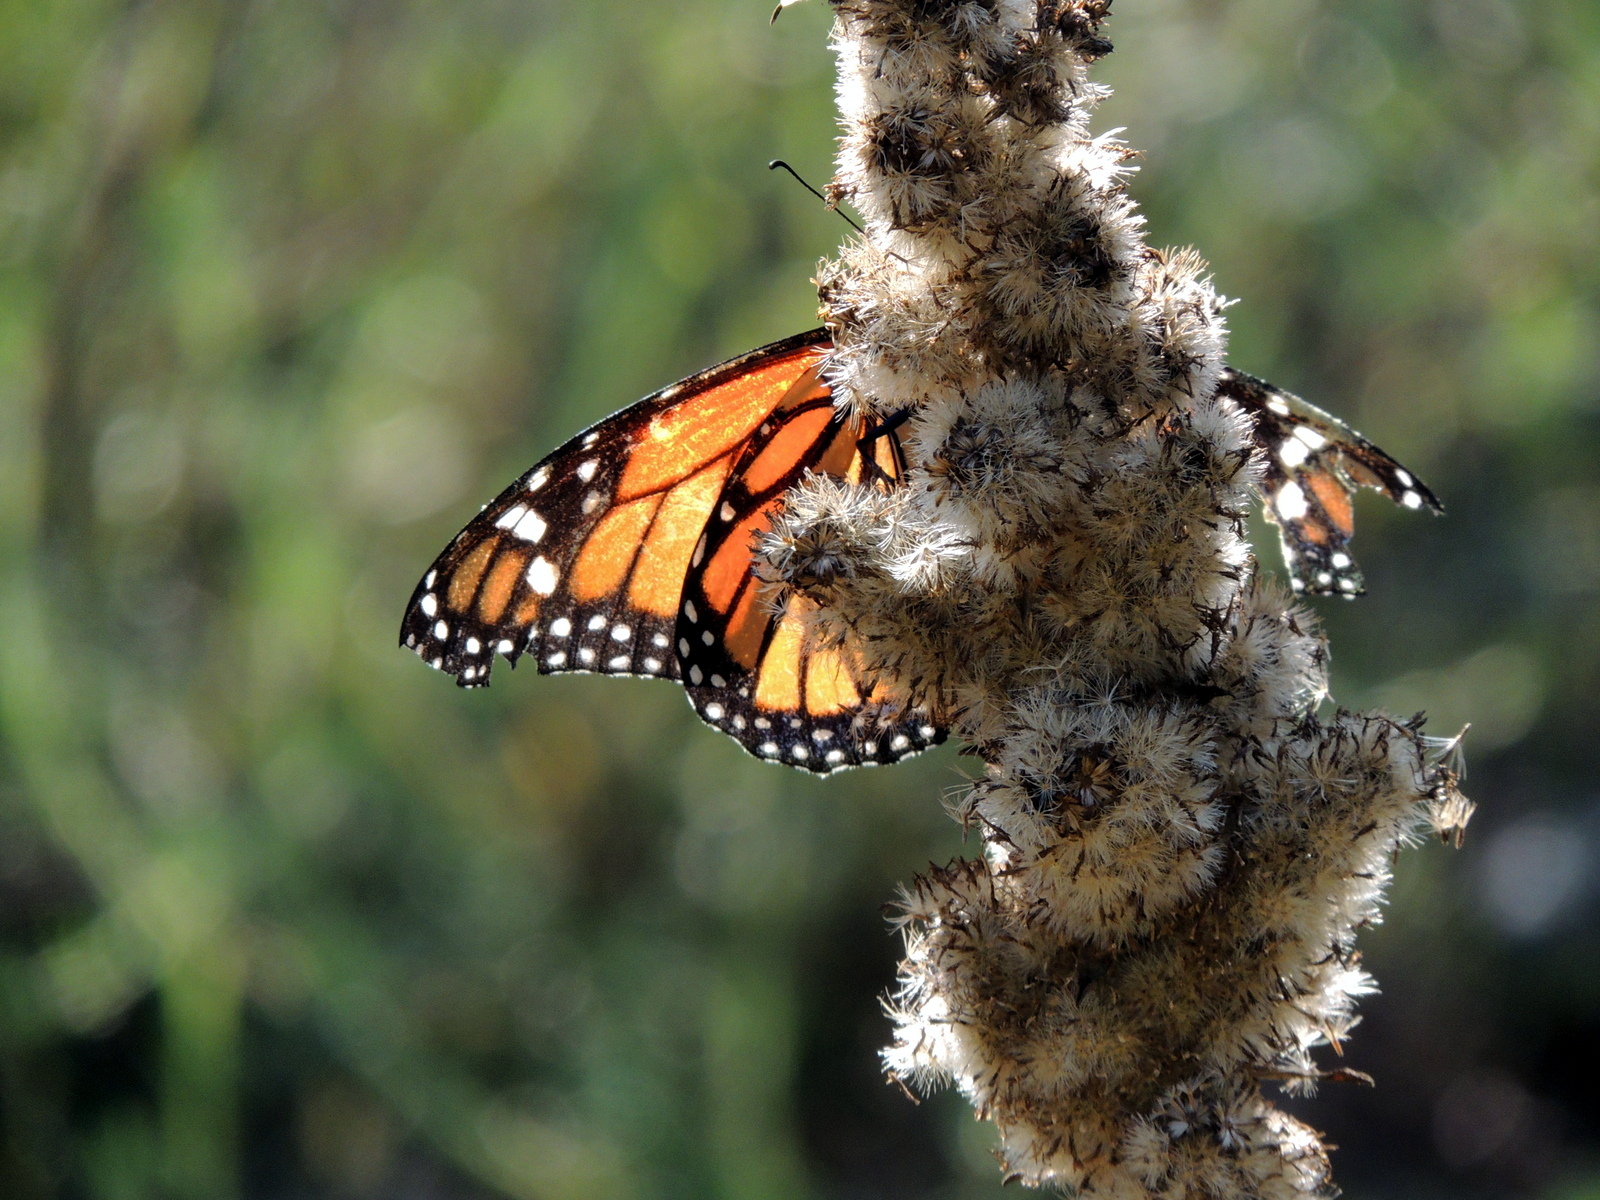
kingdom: Animalia
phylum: Arthropoda
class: Insecta
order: Lepidoptera
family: Nymphalidae
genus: Danaus
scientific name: Danaus plexippus
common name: Monarch
